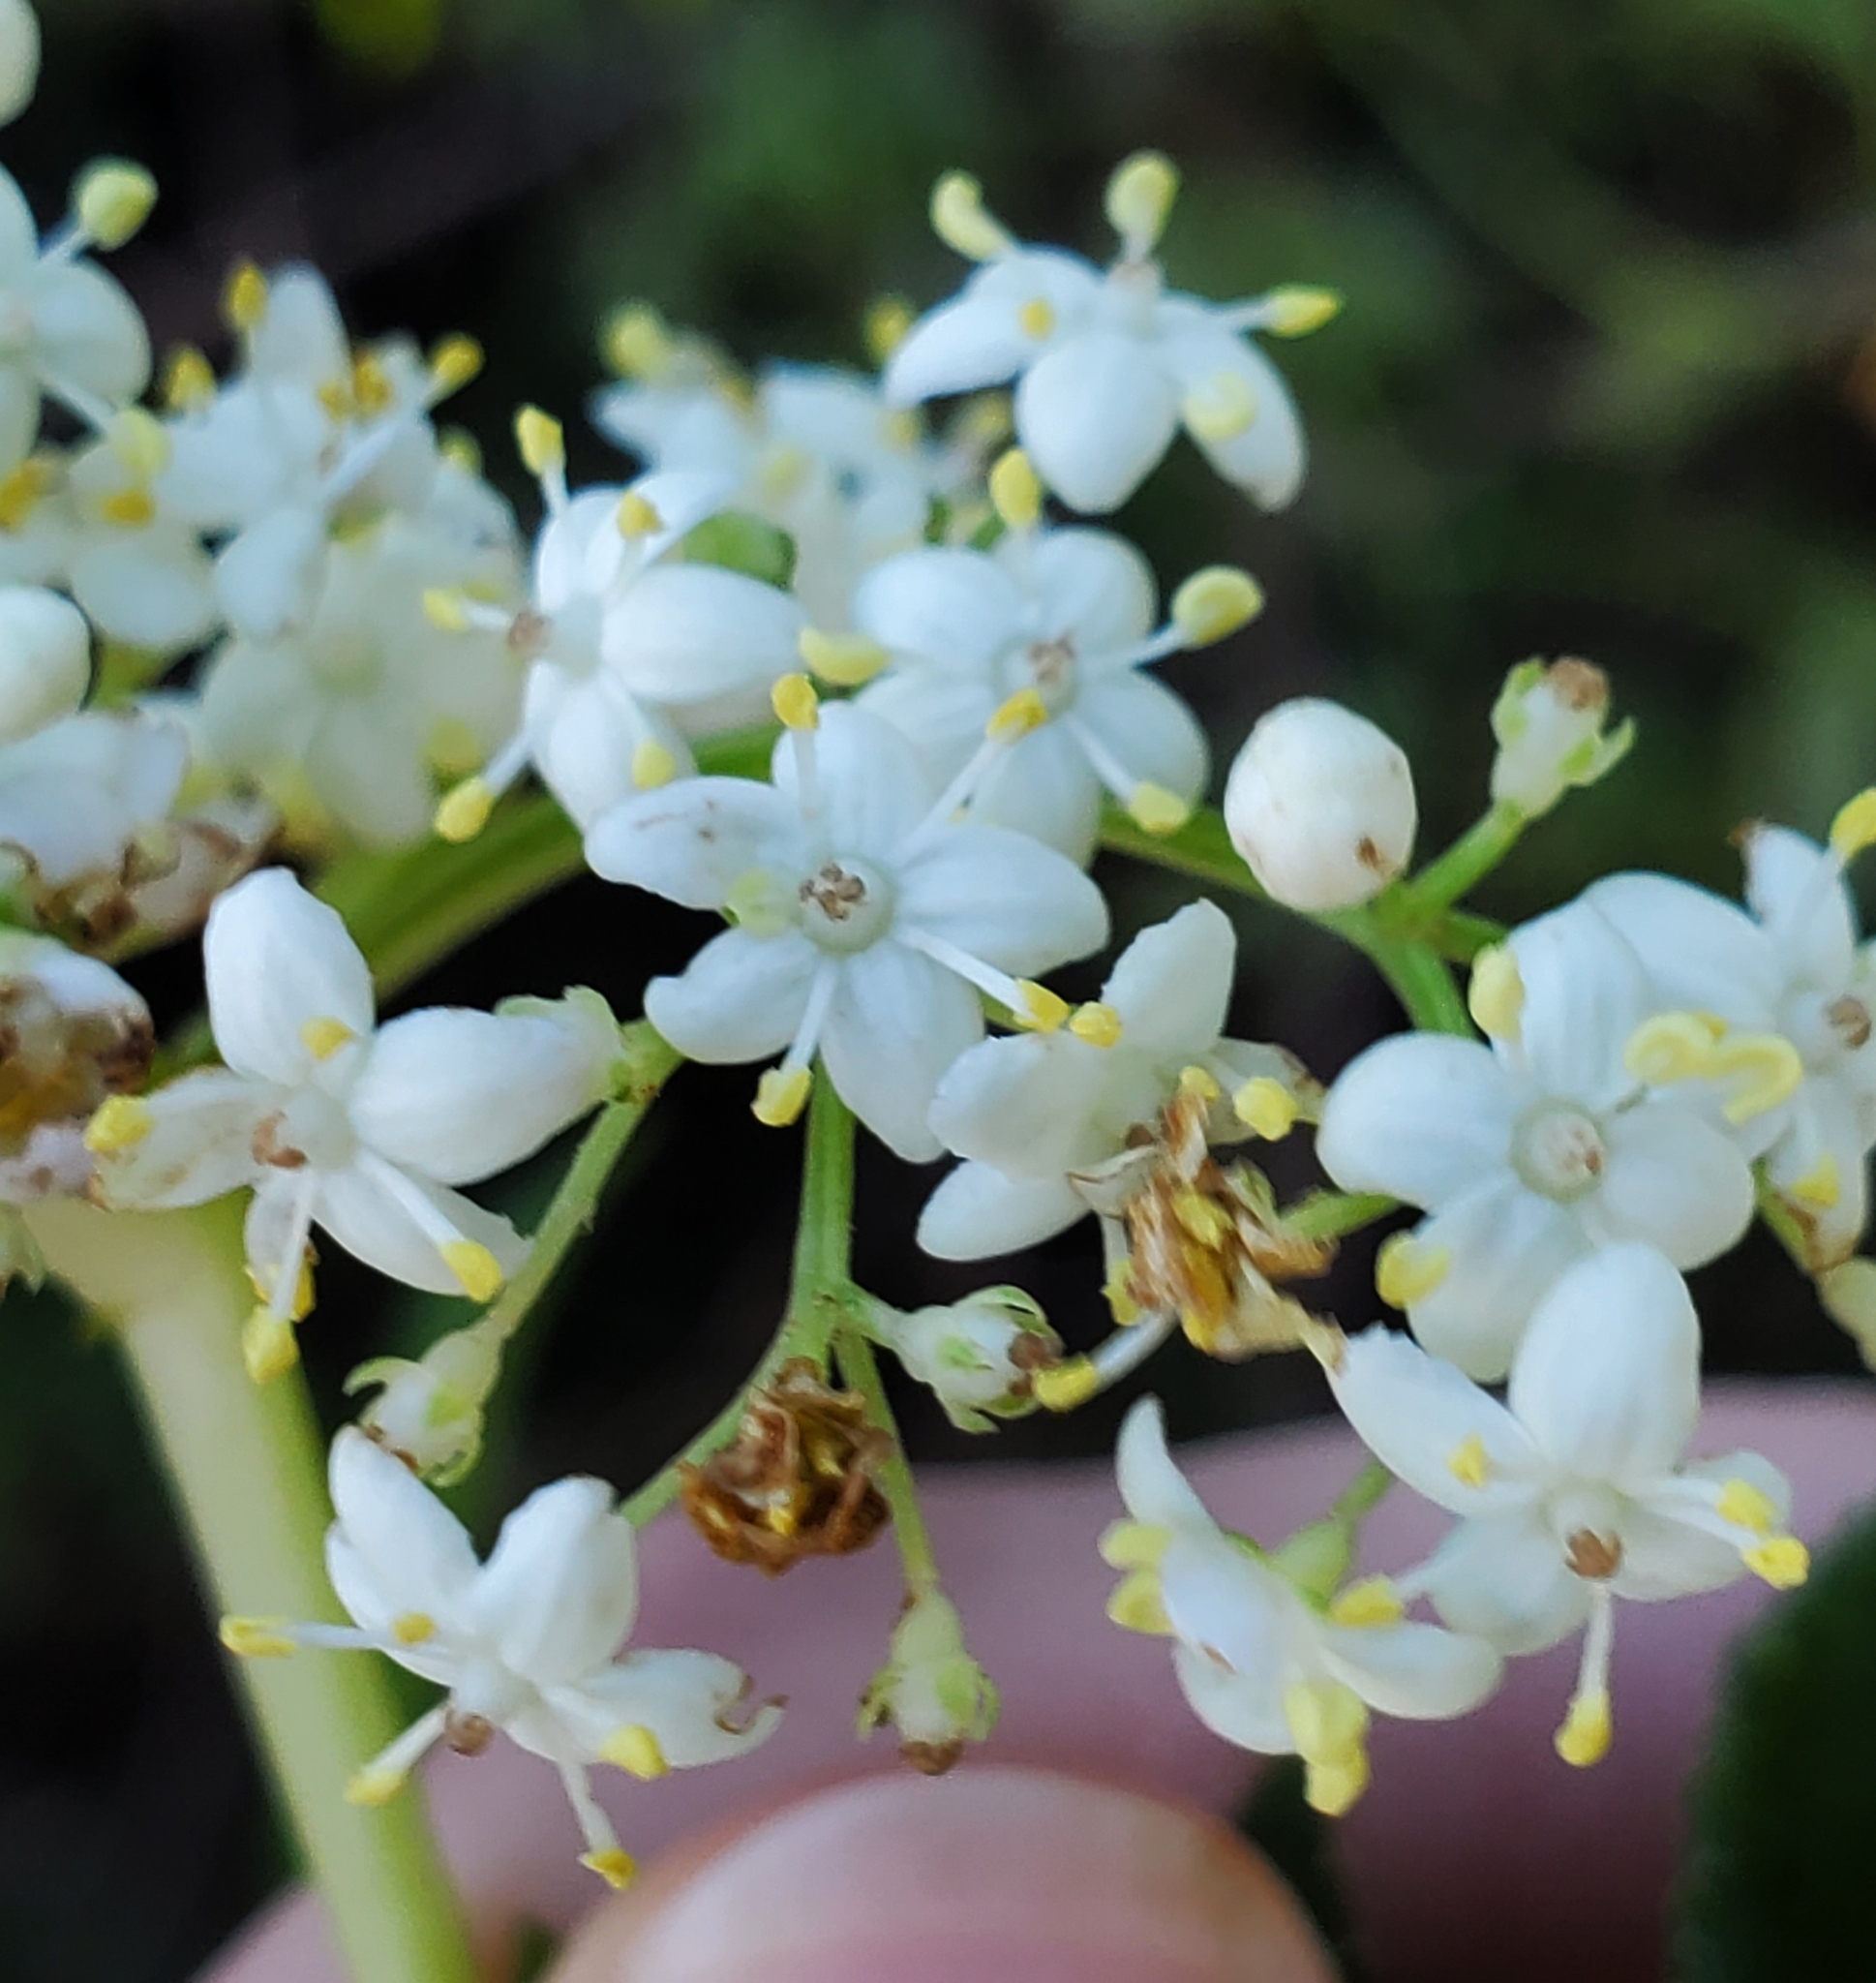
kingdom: Plantae
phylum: Tracheophyta
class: Magnoliopsida
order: Dipsacales
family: Viburnaceae
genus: Sambucus
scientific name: Sambucus canadensis
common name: American elder
